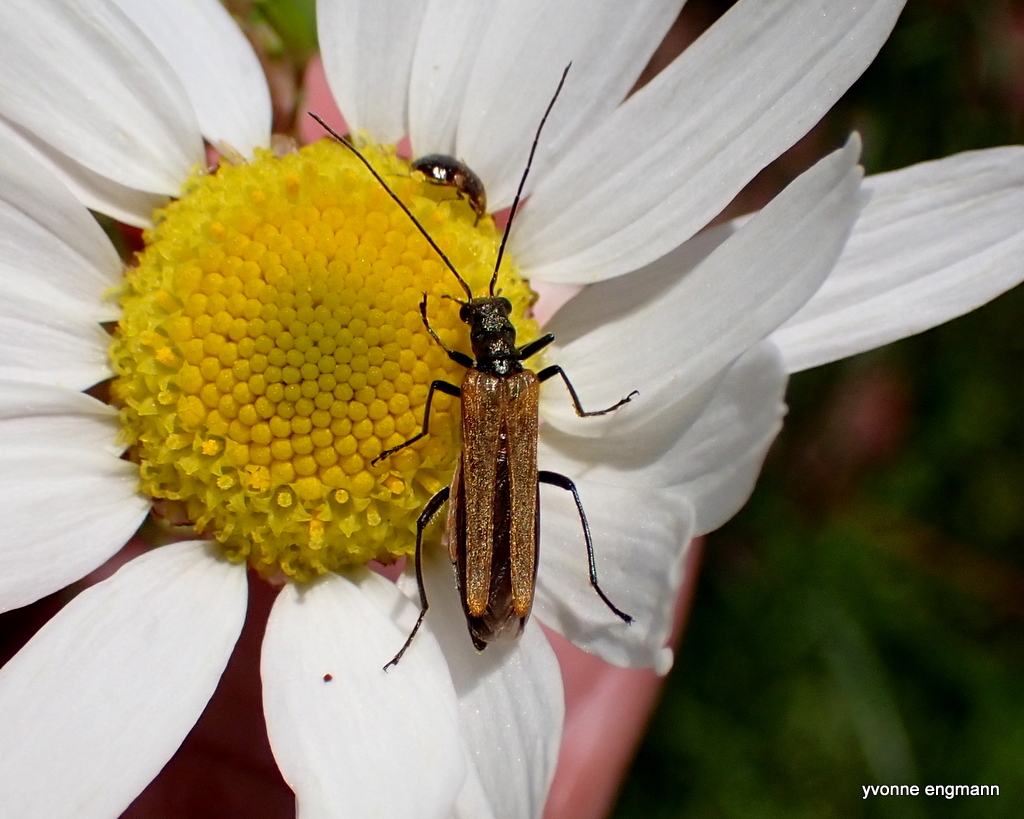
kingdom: Animalia
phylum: Arthropoda
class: Insecta
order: Coleoptera
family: Oedemeridae
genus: Oedemera
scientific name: Oedemera femorata
